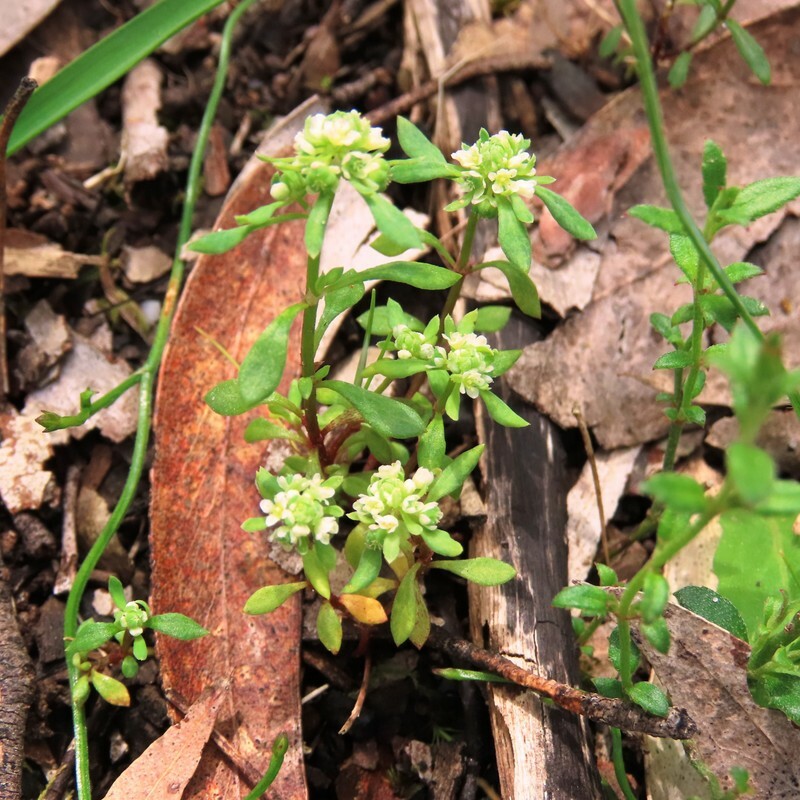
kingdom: Plantae
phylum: Tracheophyta
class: Magnoliopsida
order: Malpighiales
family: Phyllanthaceae
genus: Poranthera
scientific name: Poranthera microphylla
